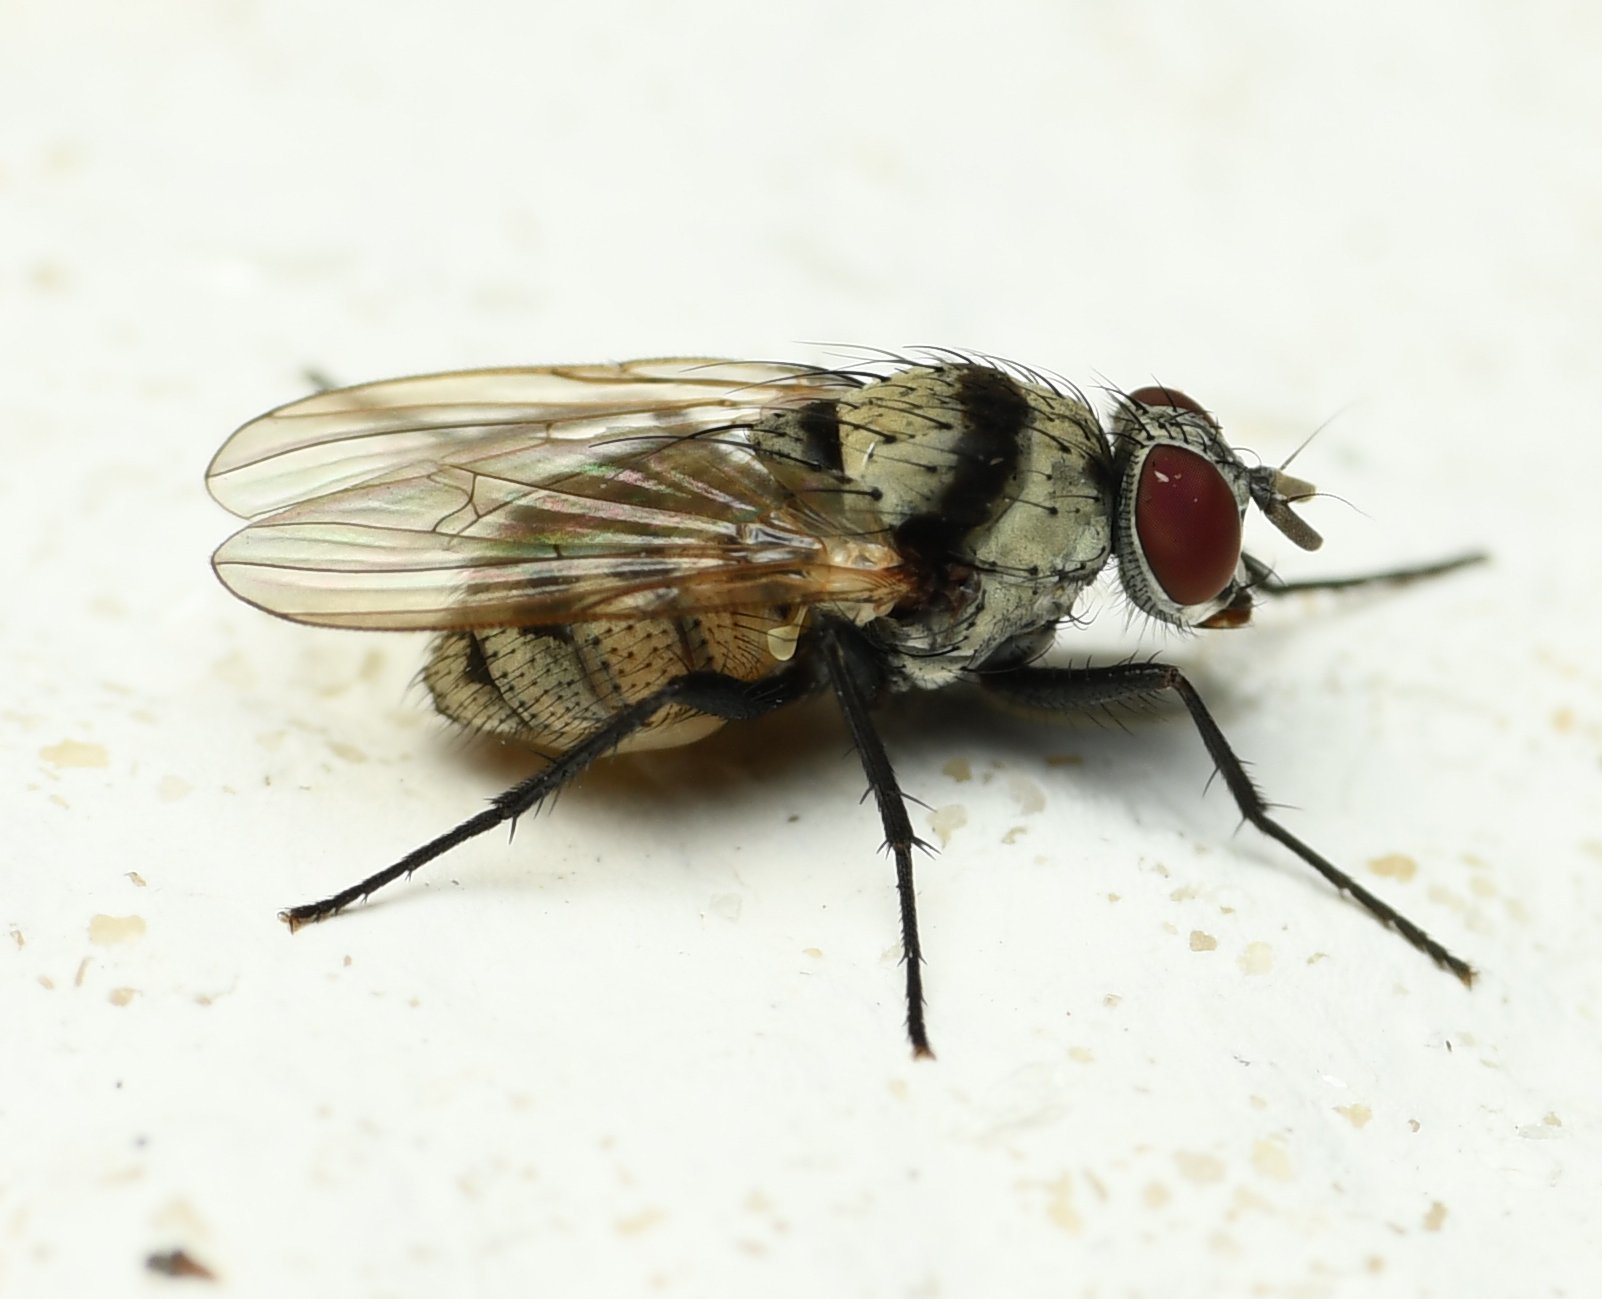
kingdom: Animalia
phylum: Arthropoda
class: Insecta
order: Diptera
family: Anthomyiidae
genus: Anthomyia
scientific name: Anthomyia illocata
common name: Fly
